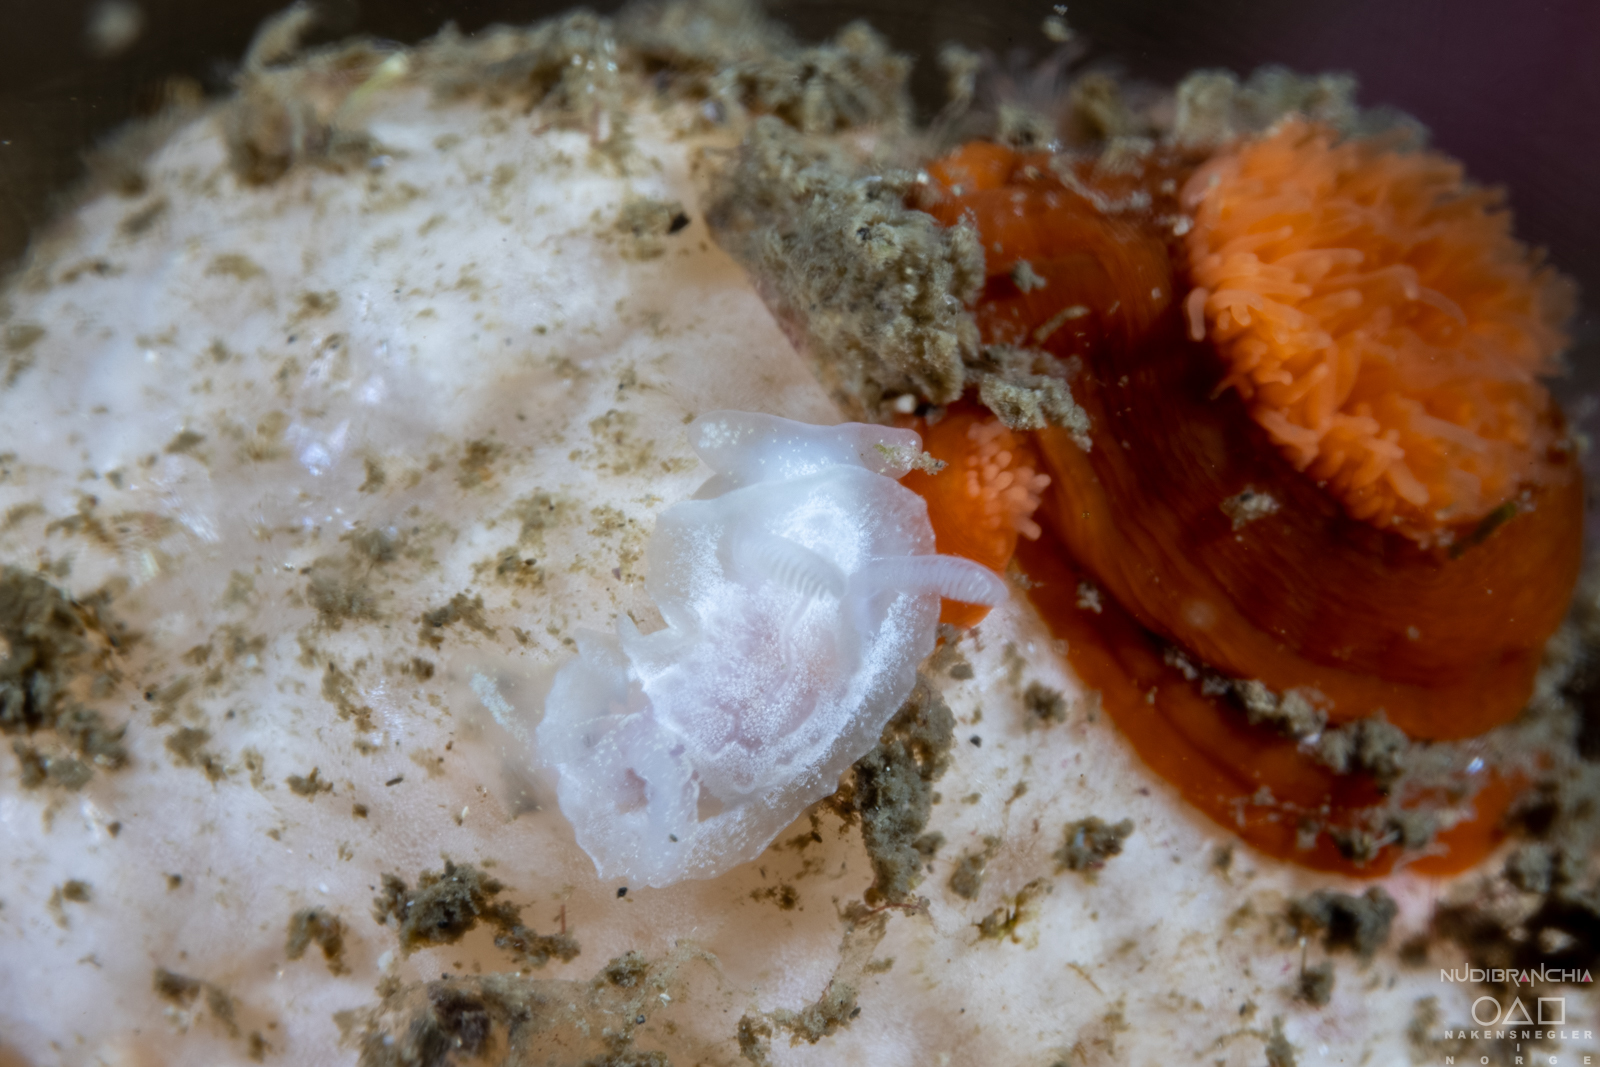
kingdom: Animalia
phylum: Mollusca
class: Gastropoda
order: Nudibranchia
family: Goniodorididae
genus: Okenia
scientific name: Okenia
